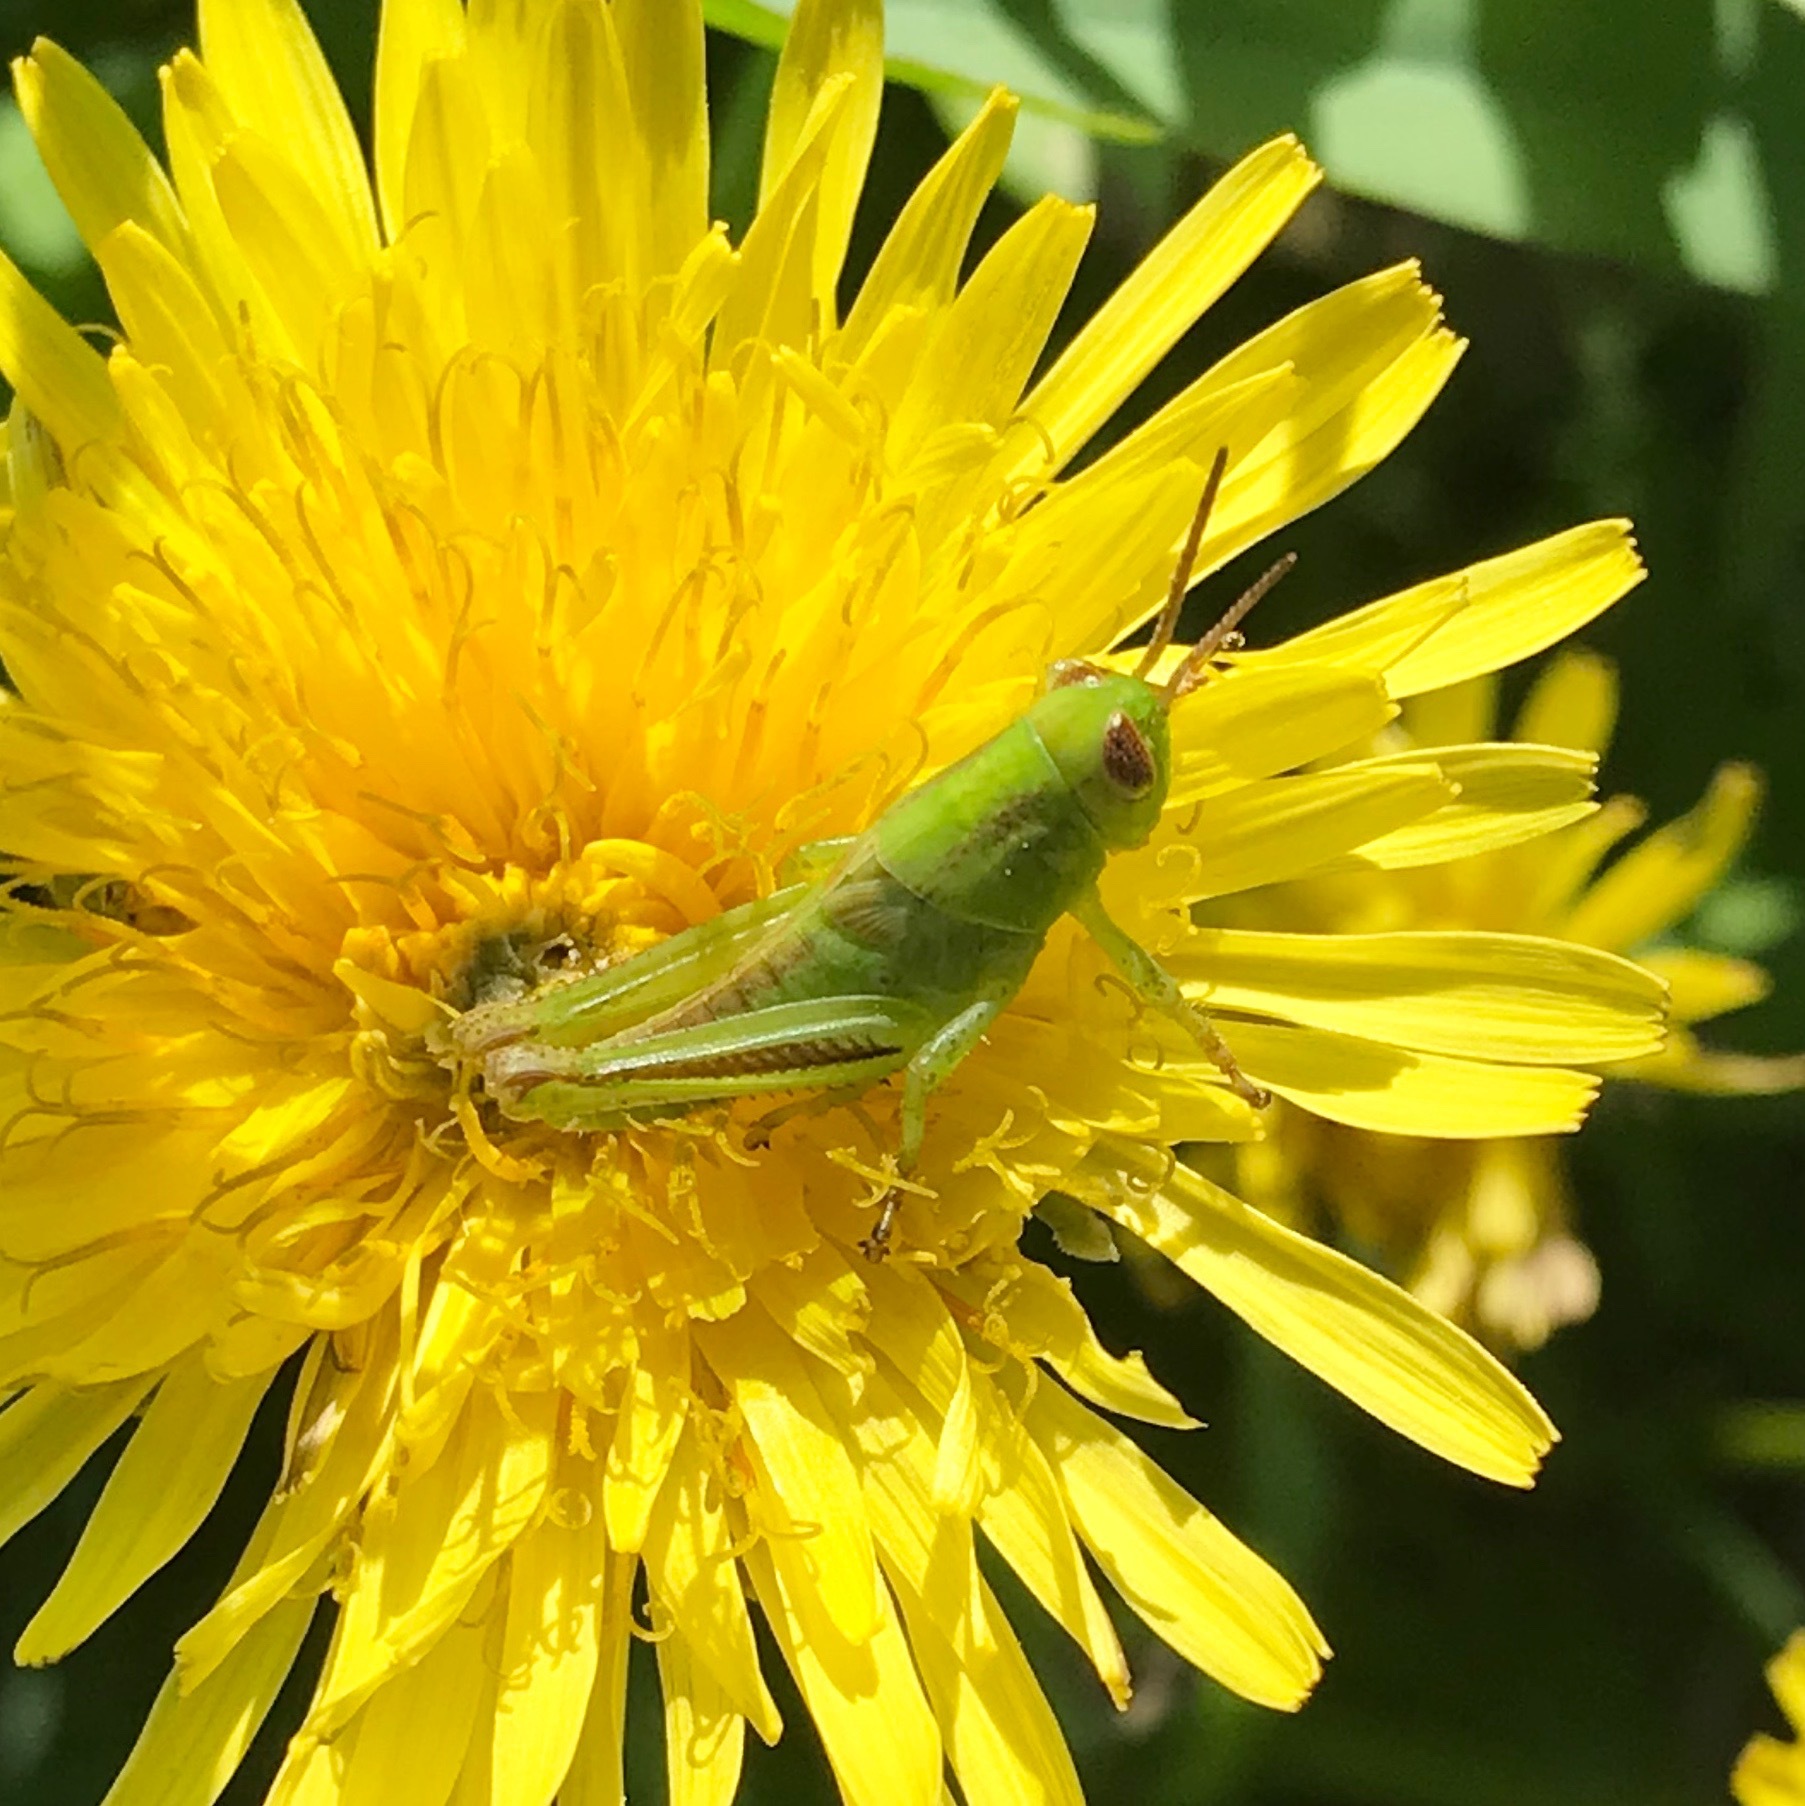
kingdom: Animalia
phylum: Arthropoda
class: Insecta
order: Orthoptera
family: Acrididae
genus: Melanoplus
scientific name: Melanoplus bivittatus
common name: Two-striped grasshopper
